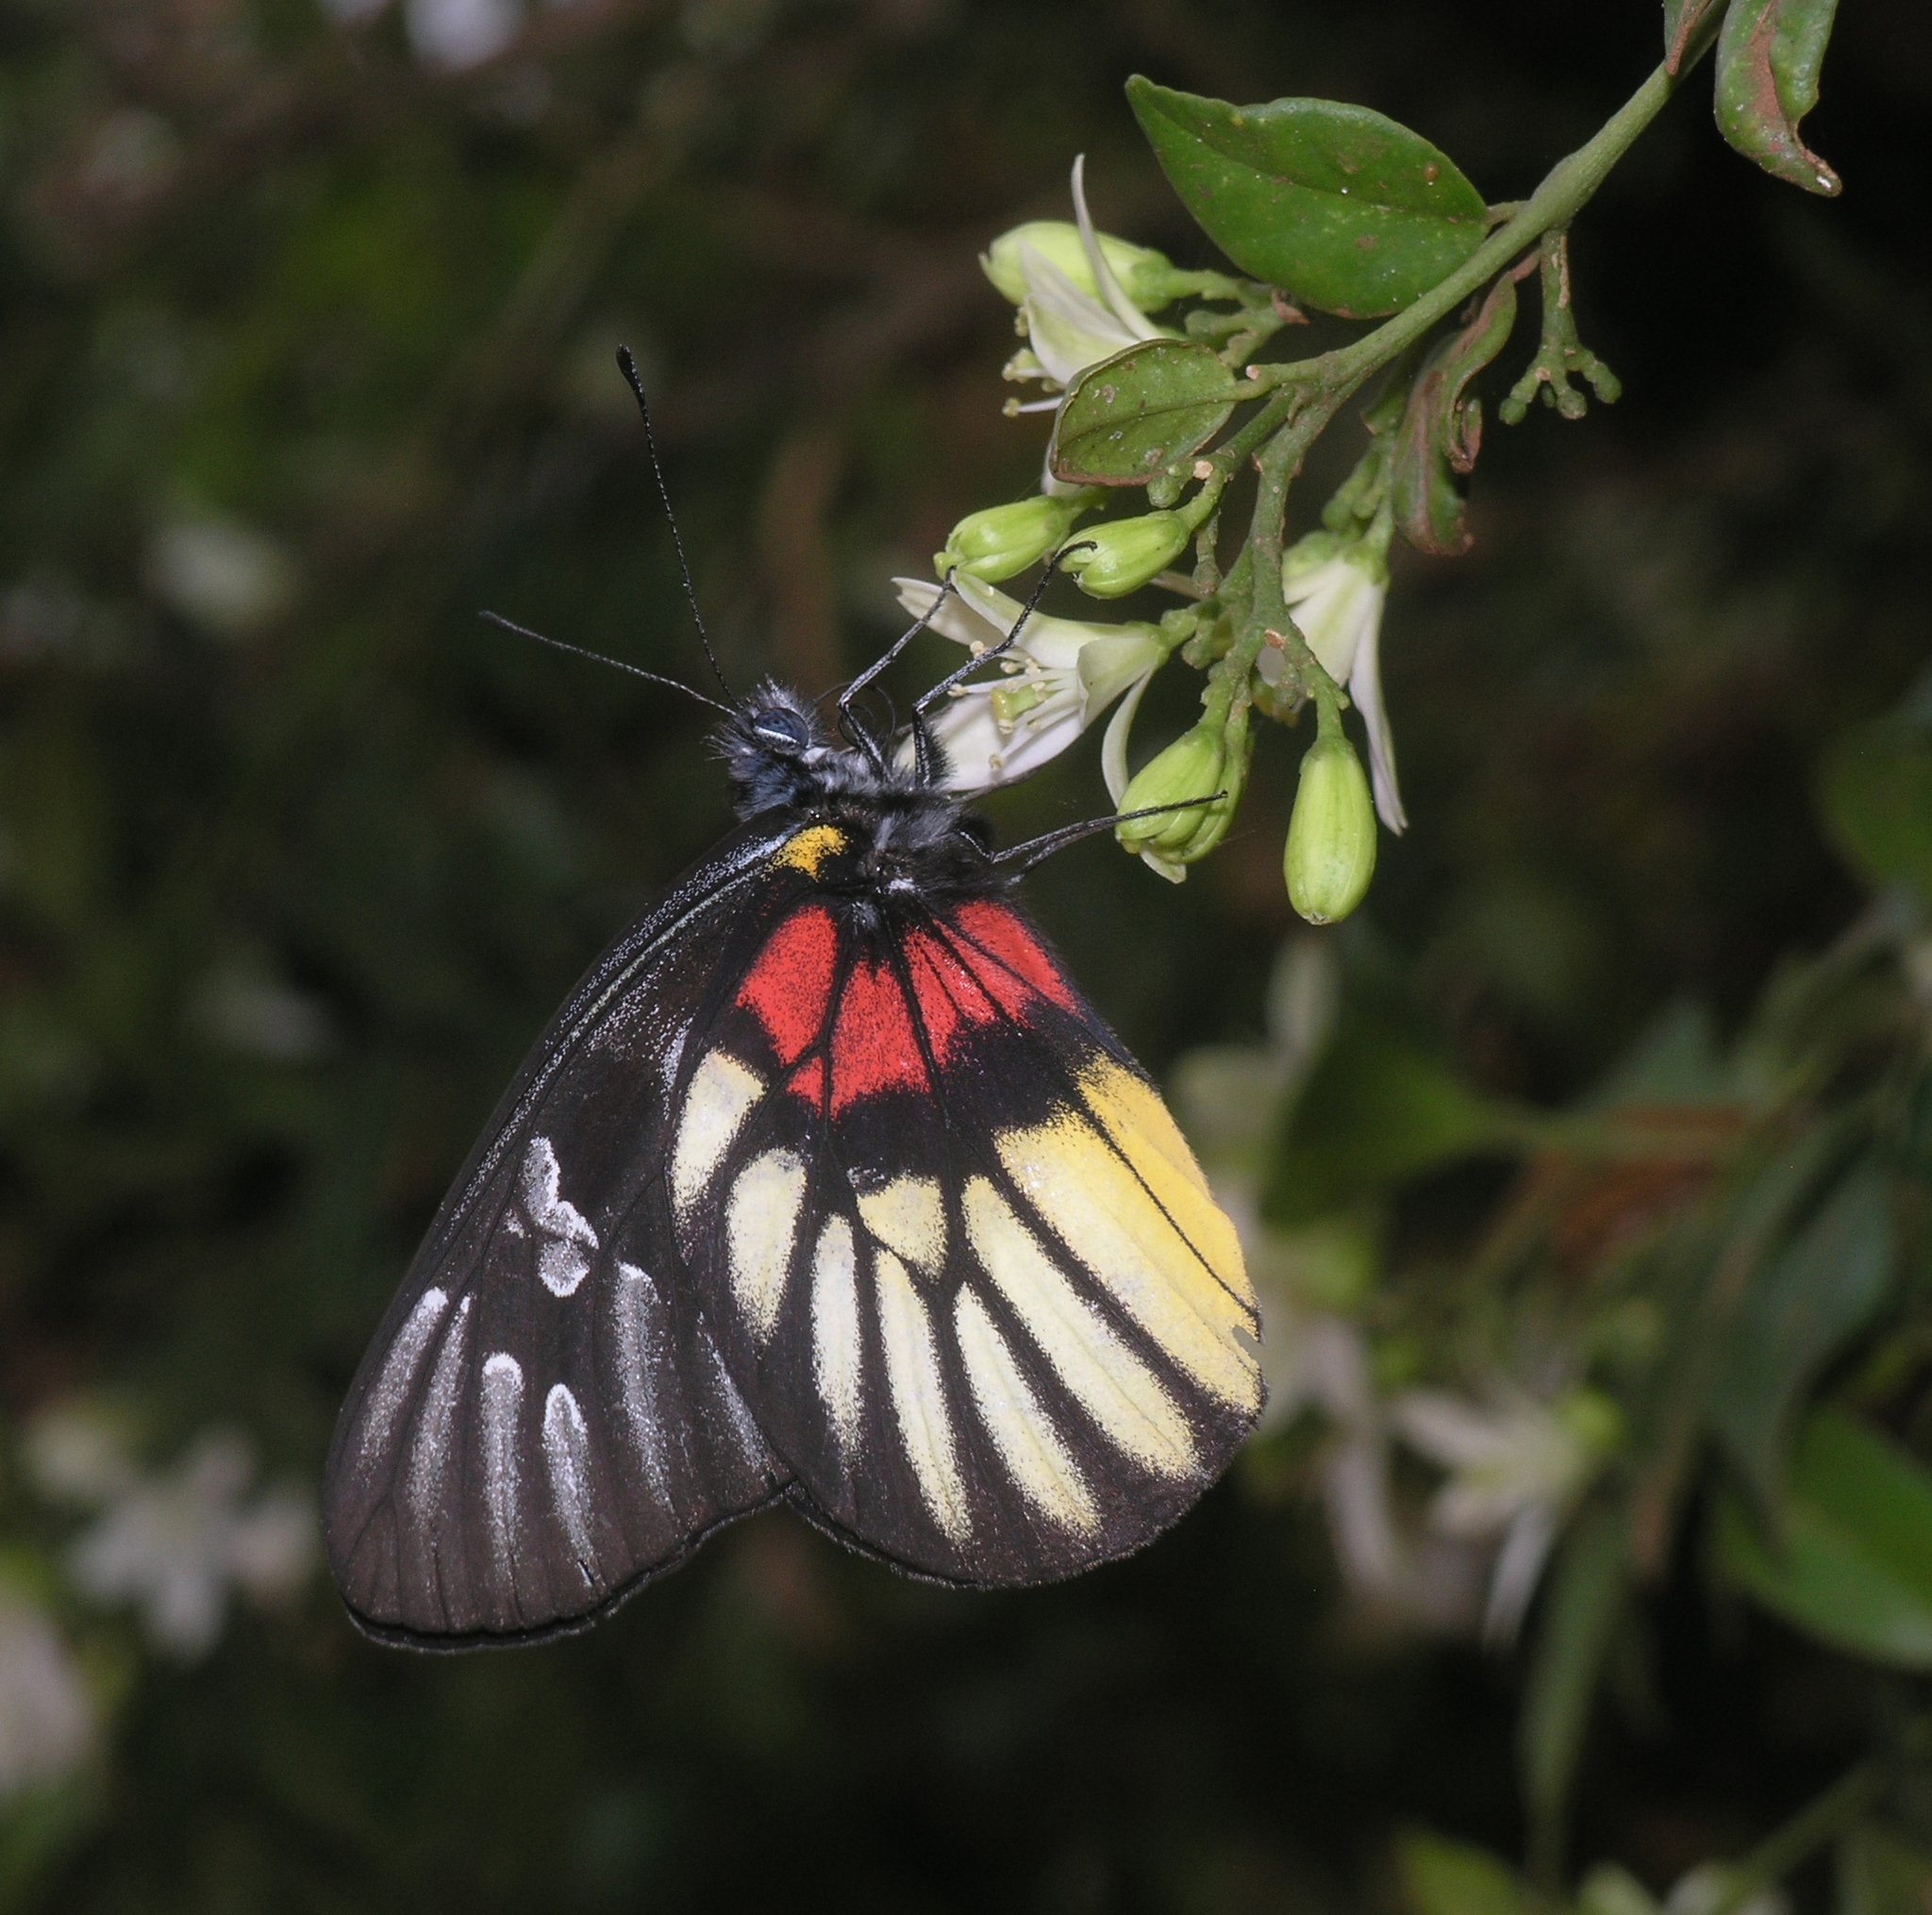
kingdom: Animalia
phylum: Arthropoda
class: Insecta
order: Lepidoptera
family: Pieridae
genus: Delias
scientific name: Delias acalis
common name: Red-breast jezebel
